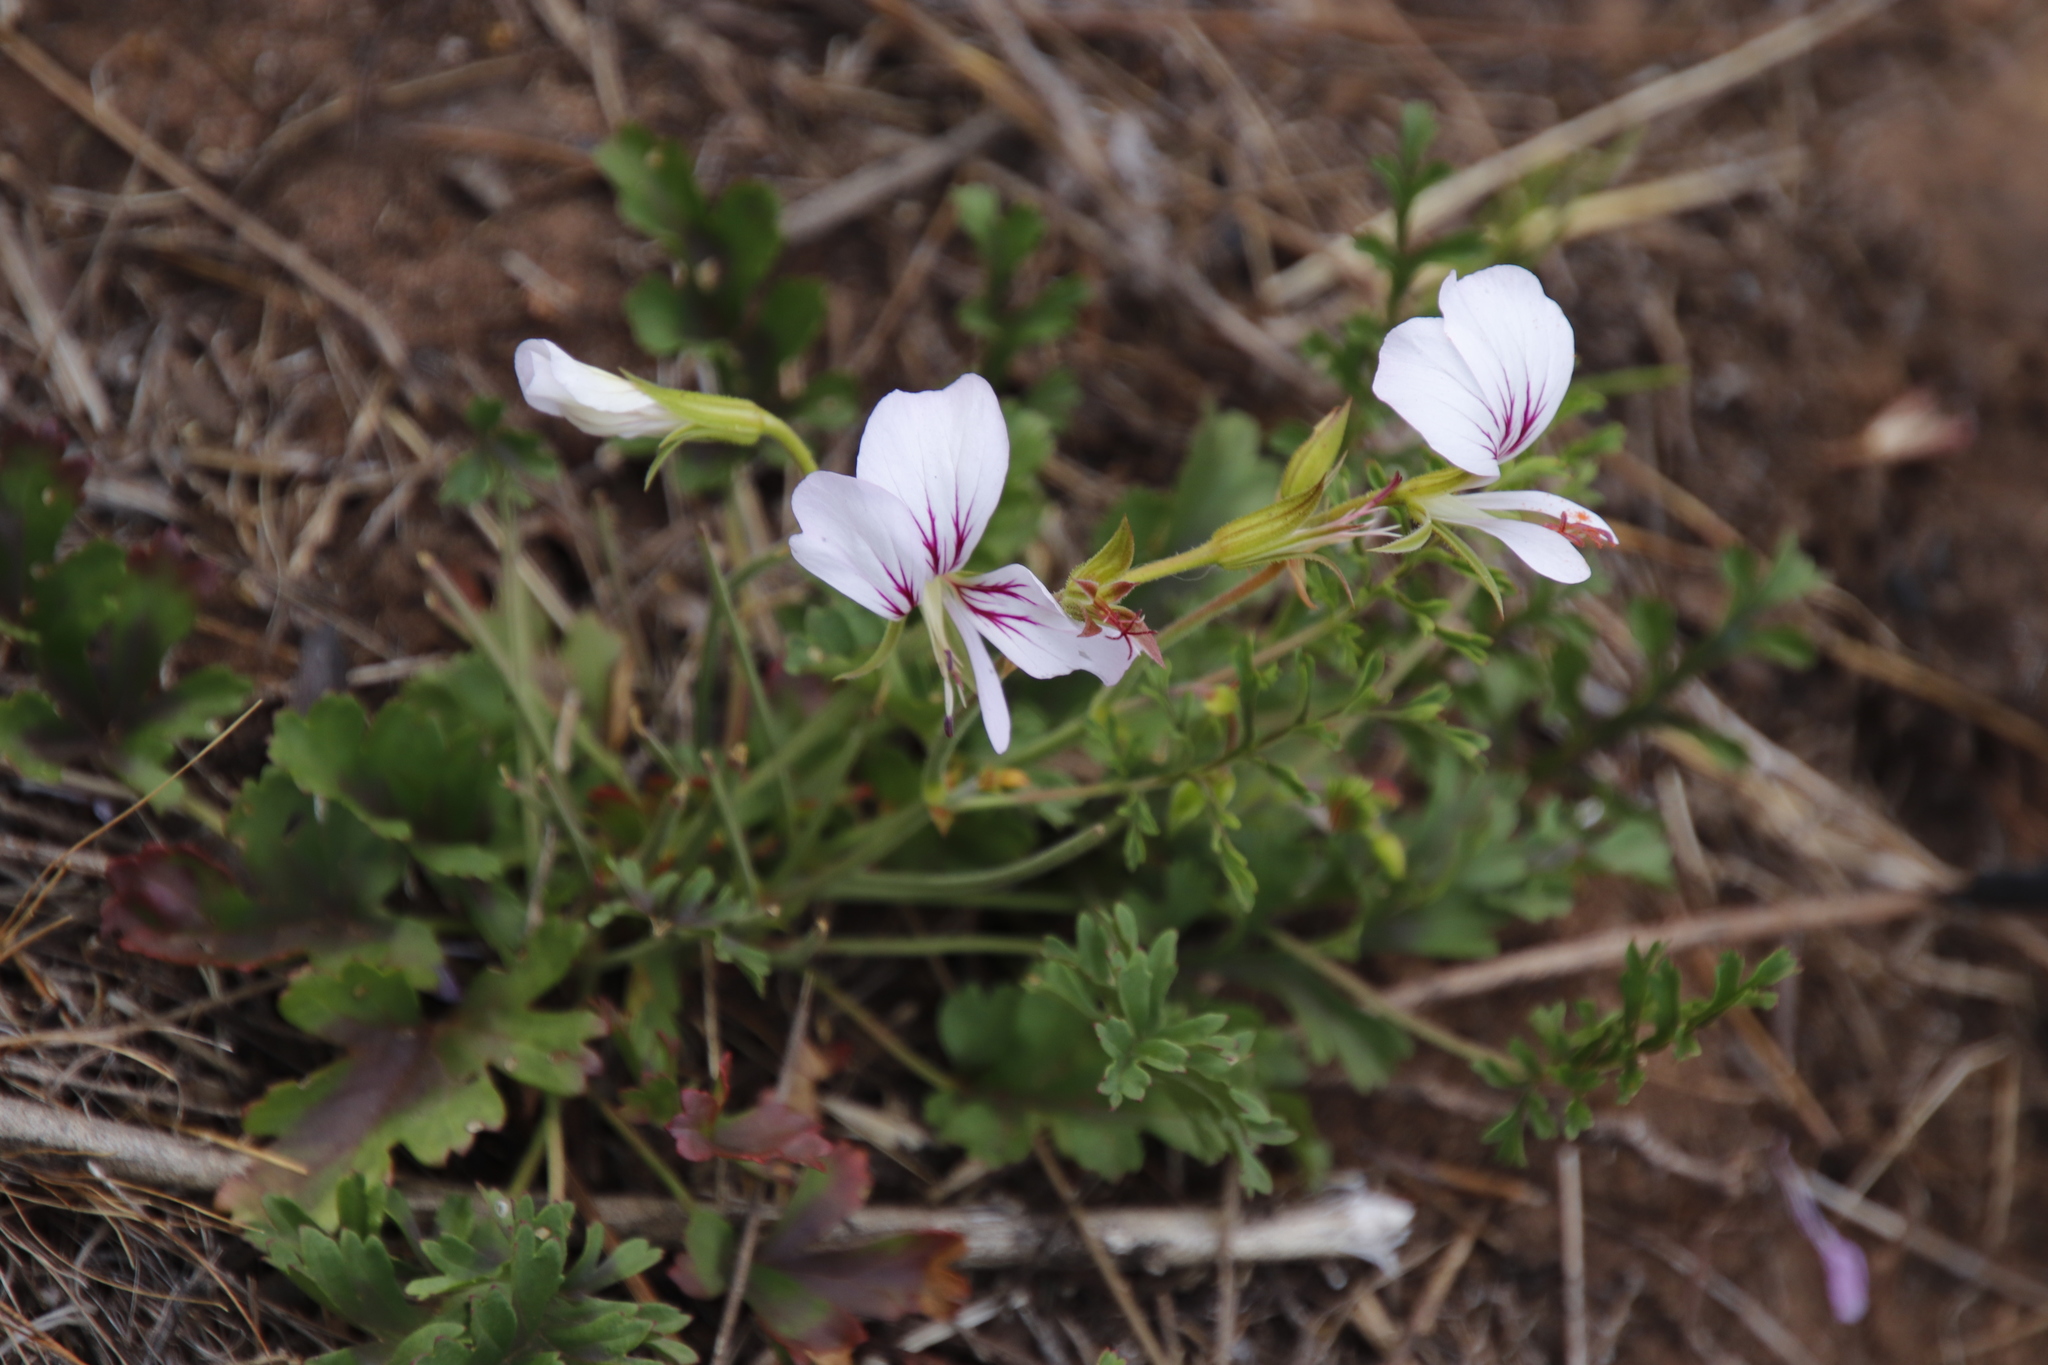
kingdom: Plantae
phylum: Tracheophyta
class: Magnoliopsida
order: Geraniales
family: Geraniaceae
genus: Pelargonium
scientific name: Pelargonium myrrhifolium
